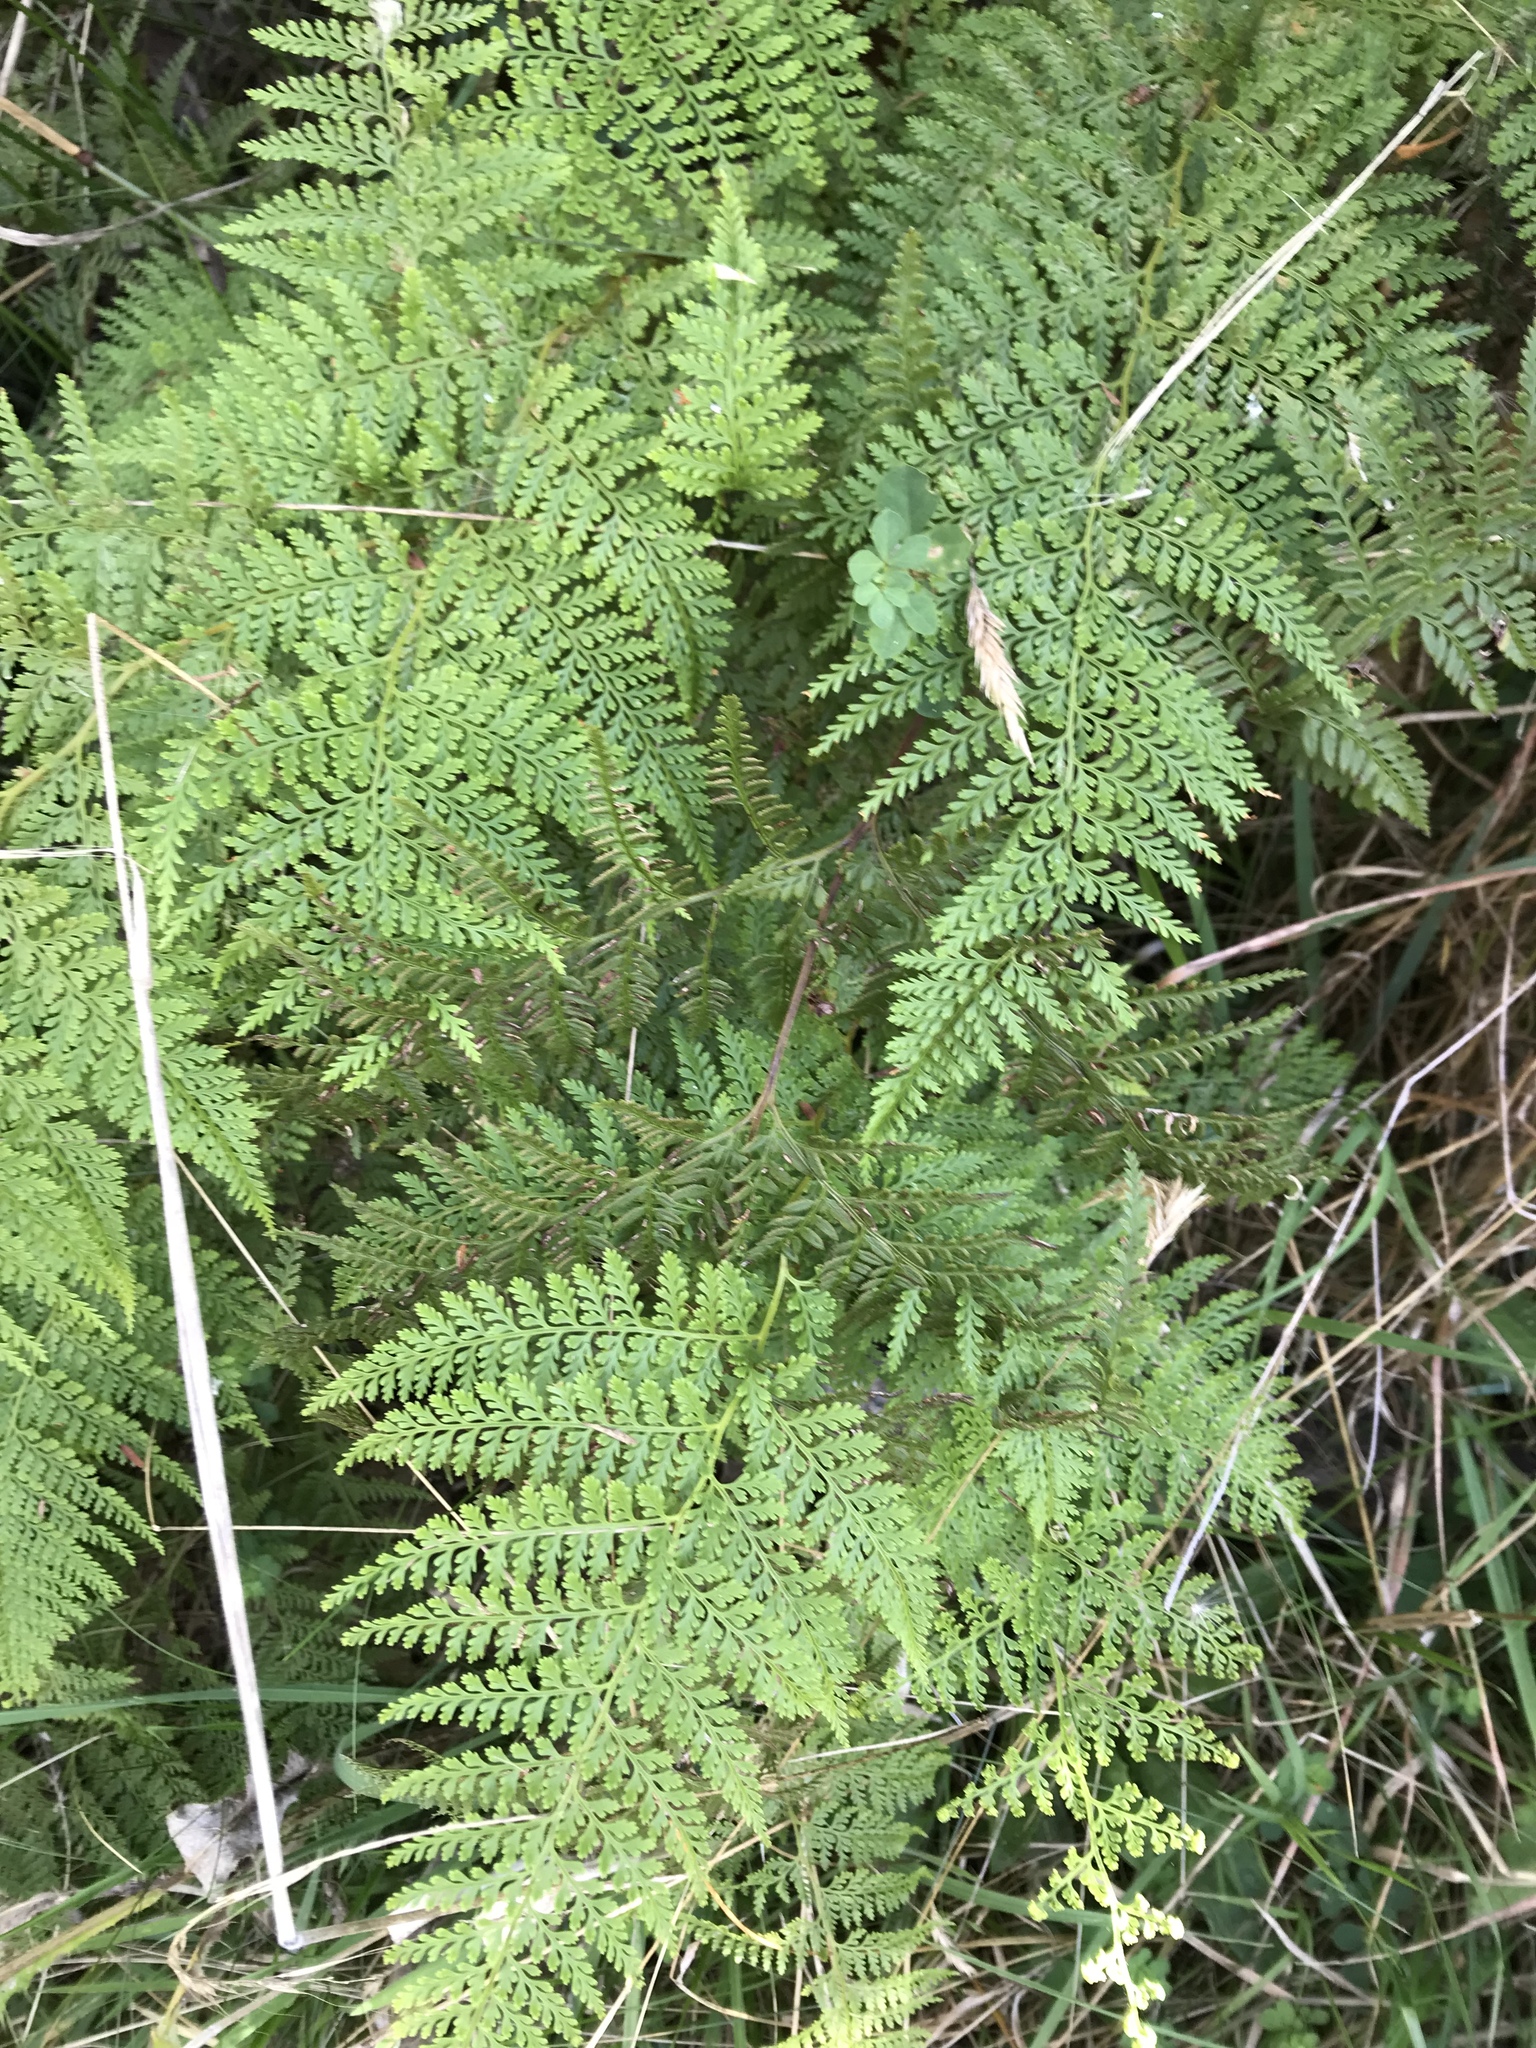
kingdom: Plantae
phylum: Tracheophyta
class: Polypodiopsida
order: Polypodiales
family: Dennstaedtiaceae
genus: Paesia
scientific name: Paesia scaberula
